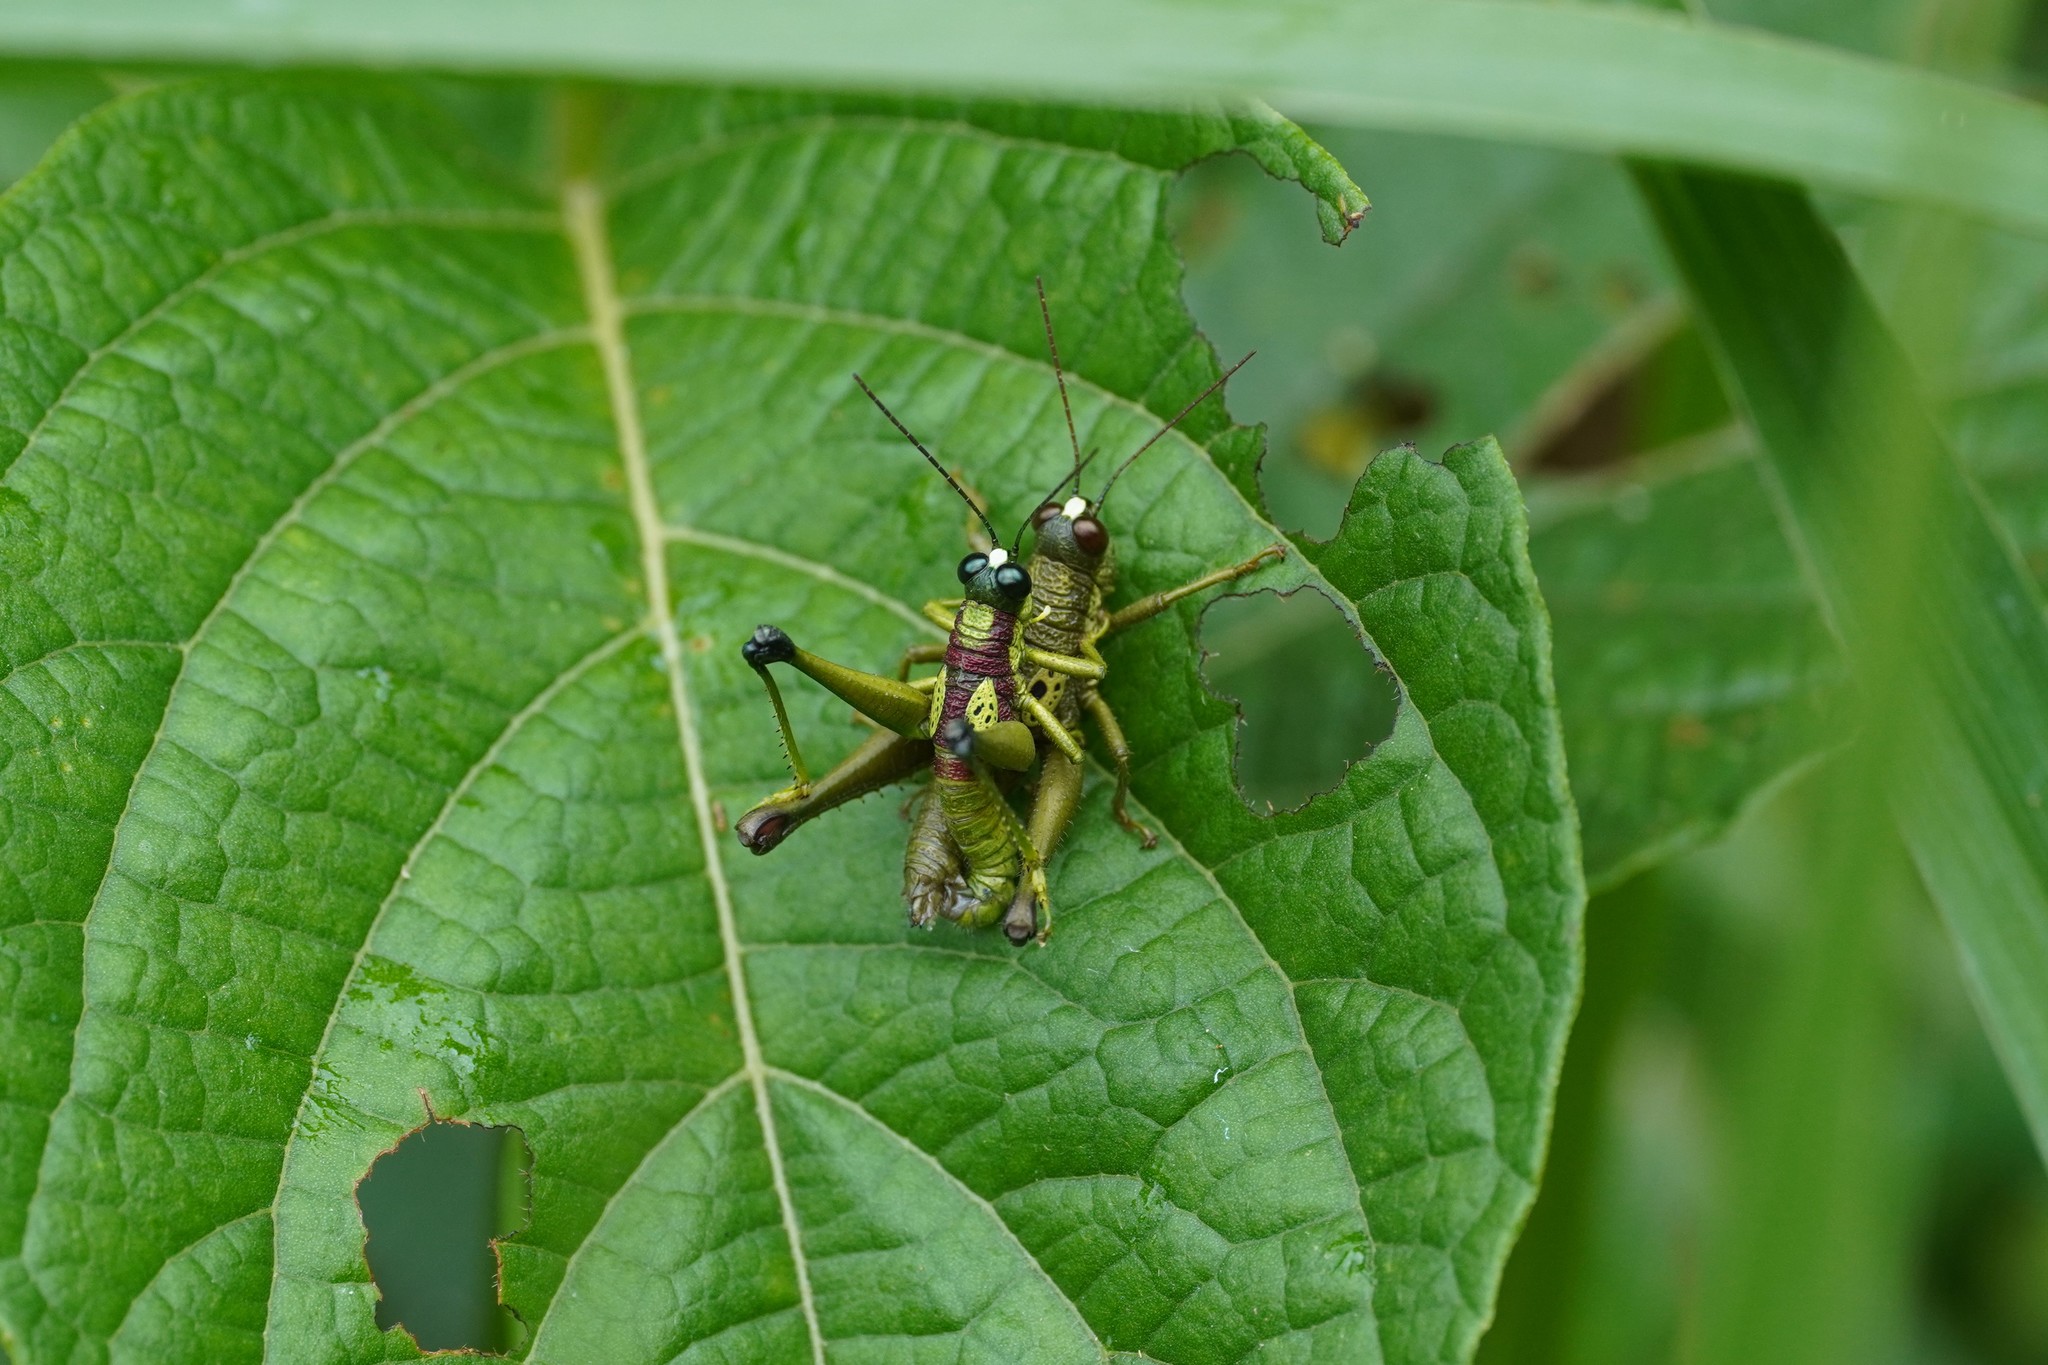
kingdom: Animalia
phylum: Arthropoda
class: Insecta
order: Orthoptera
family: Acrididae
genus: Hippariacris
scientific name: Hippariacris latona
